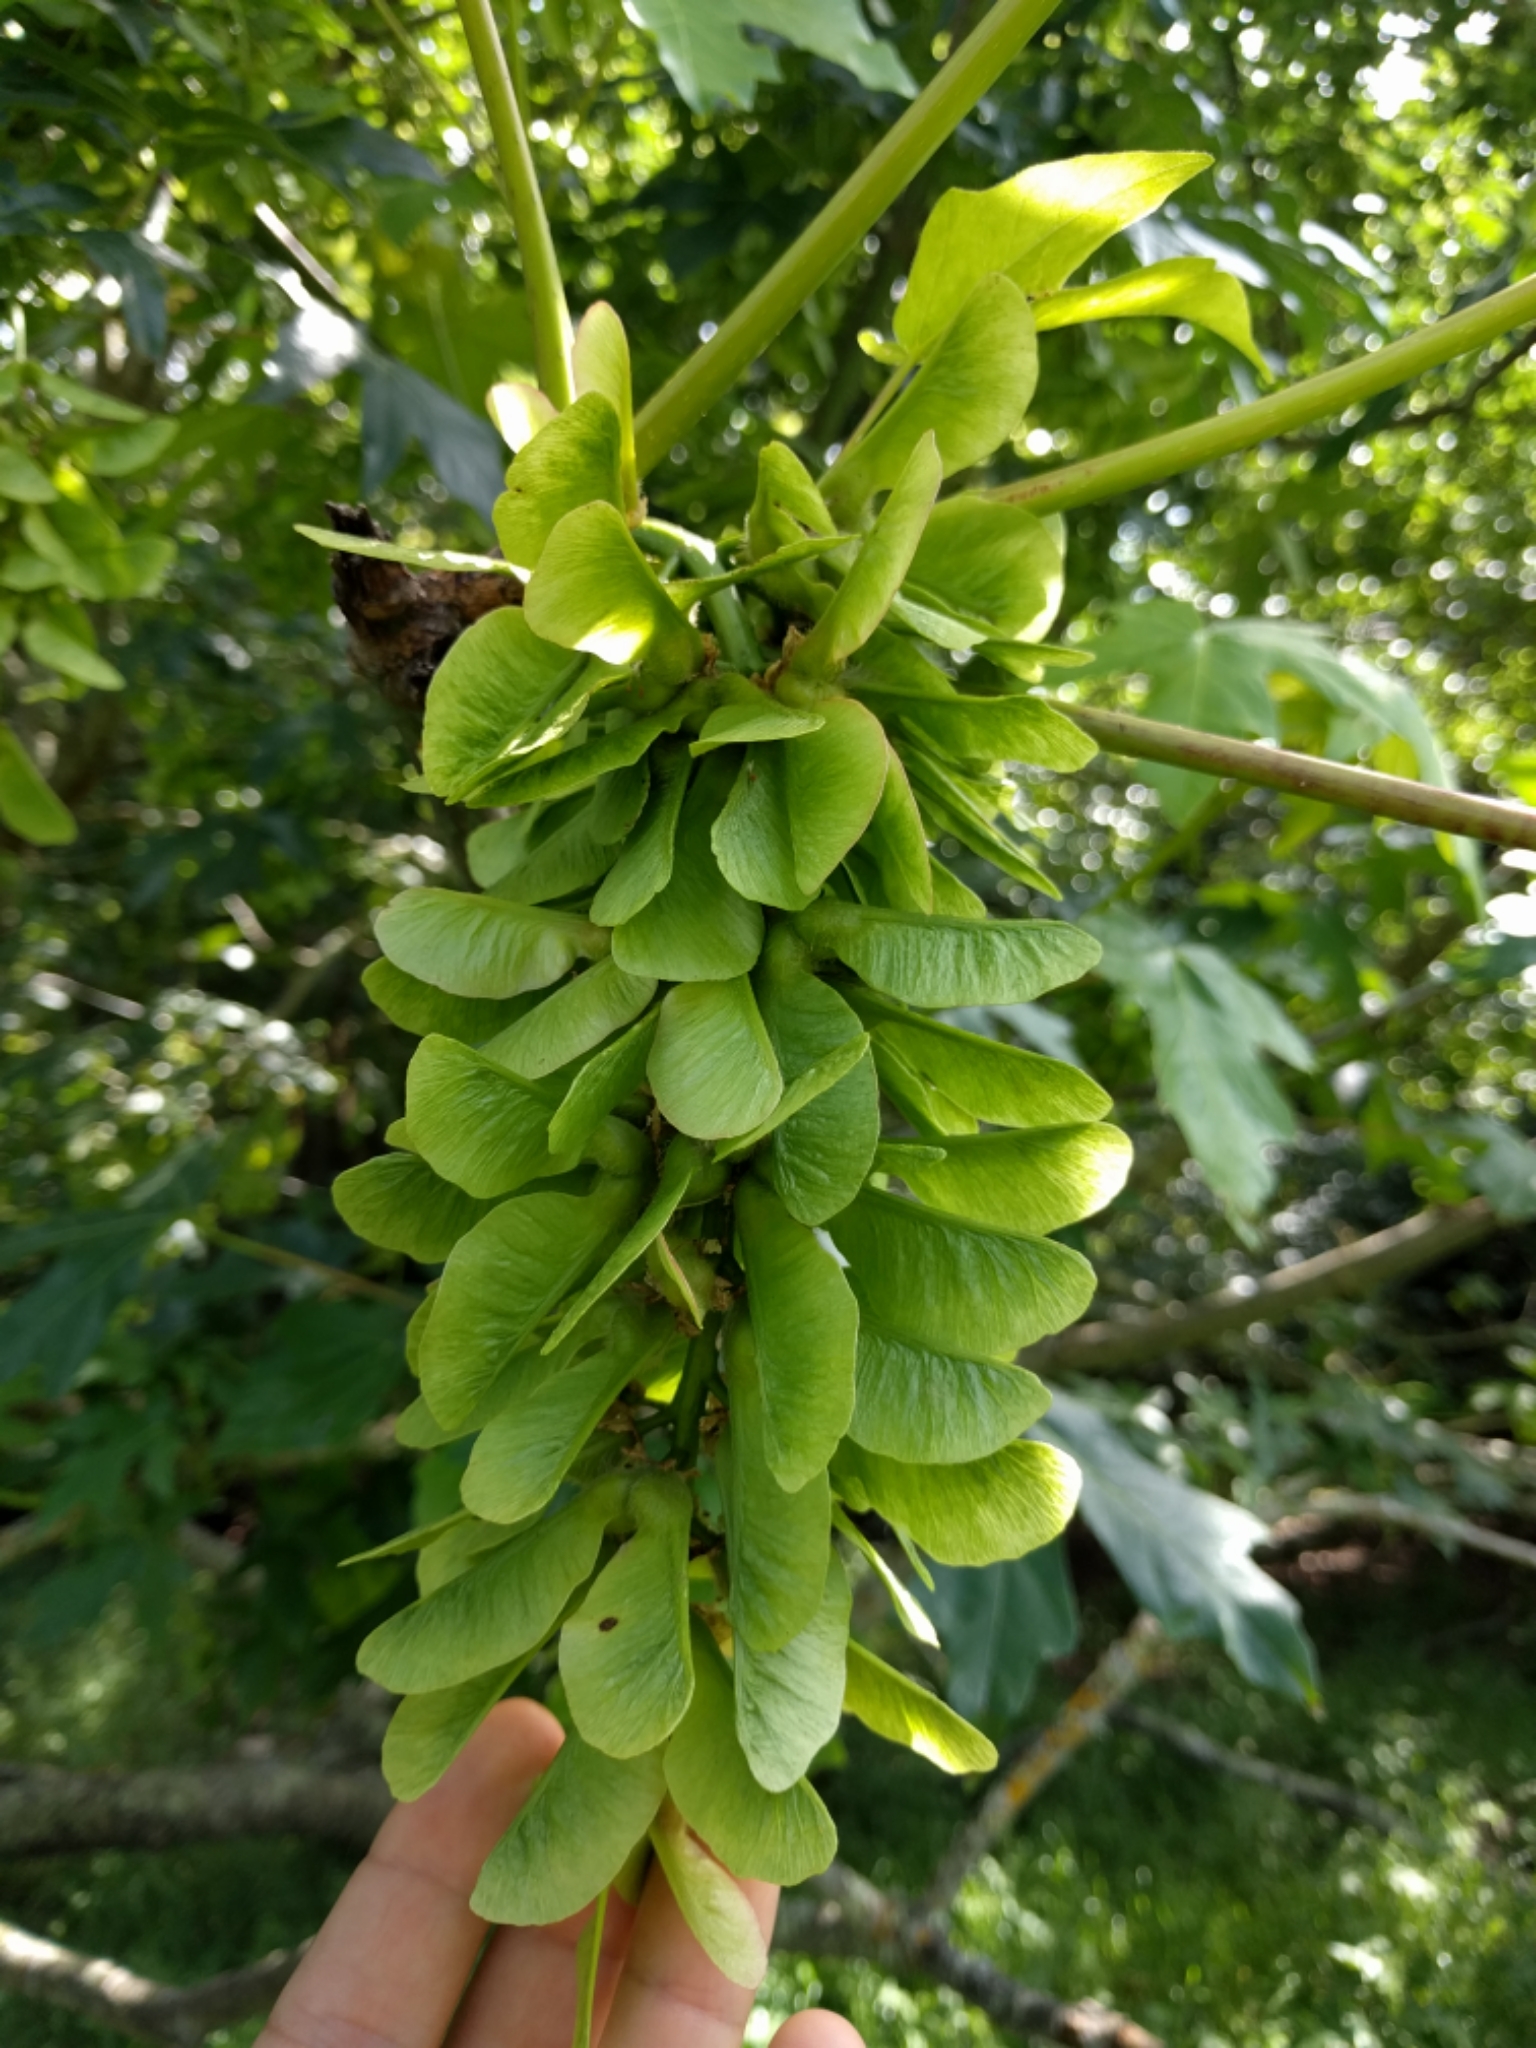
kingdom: Plantae
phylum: Tracheophyta
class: Magnoliopsida
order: Sapindales
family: Sapindaceae
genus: Acer
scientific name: Acer macrophyllum
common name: Oregon maple
